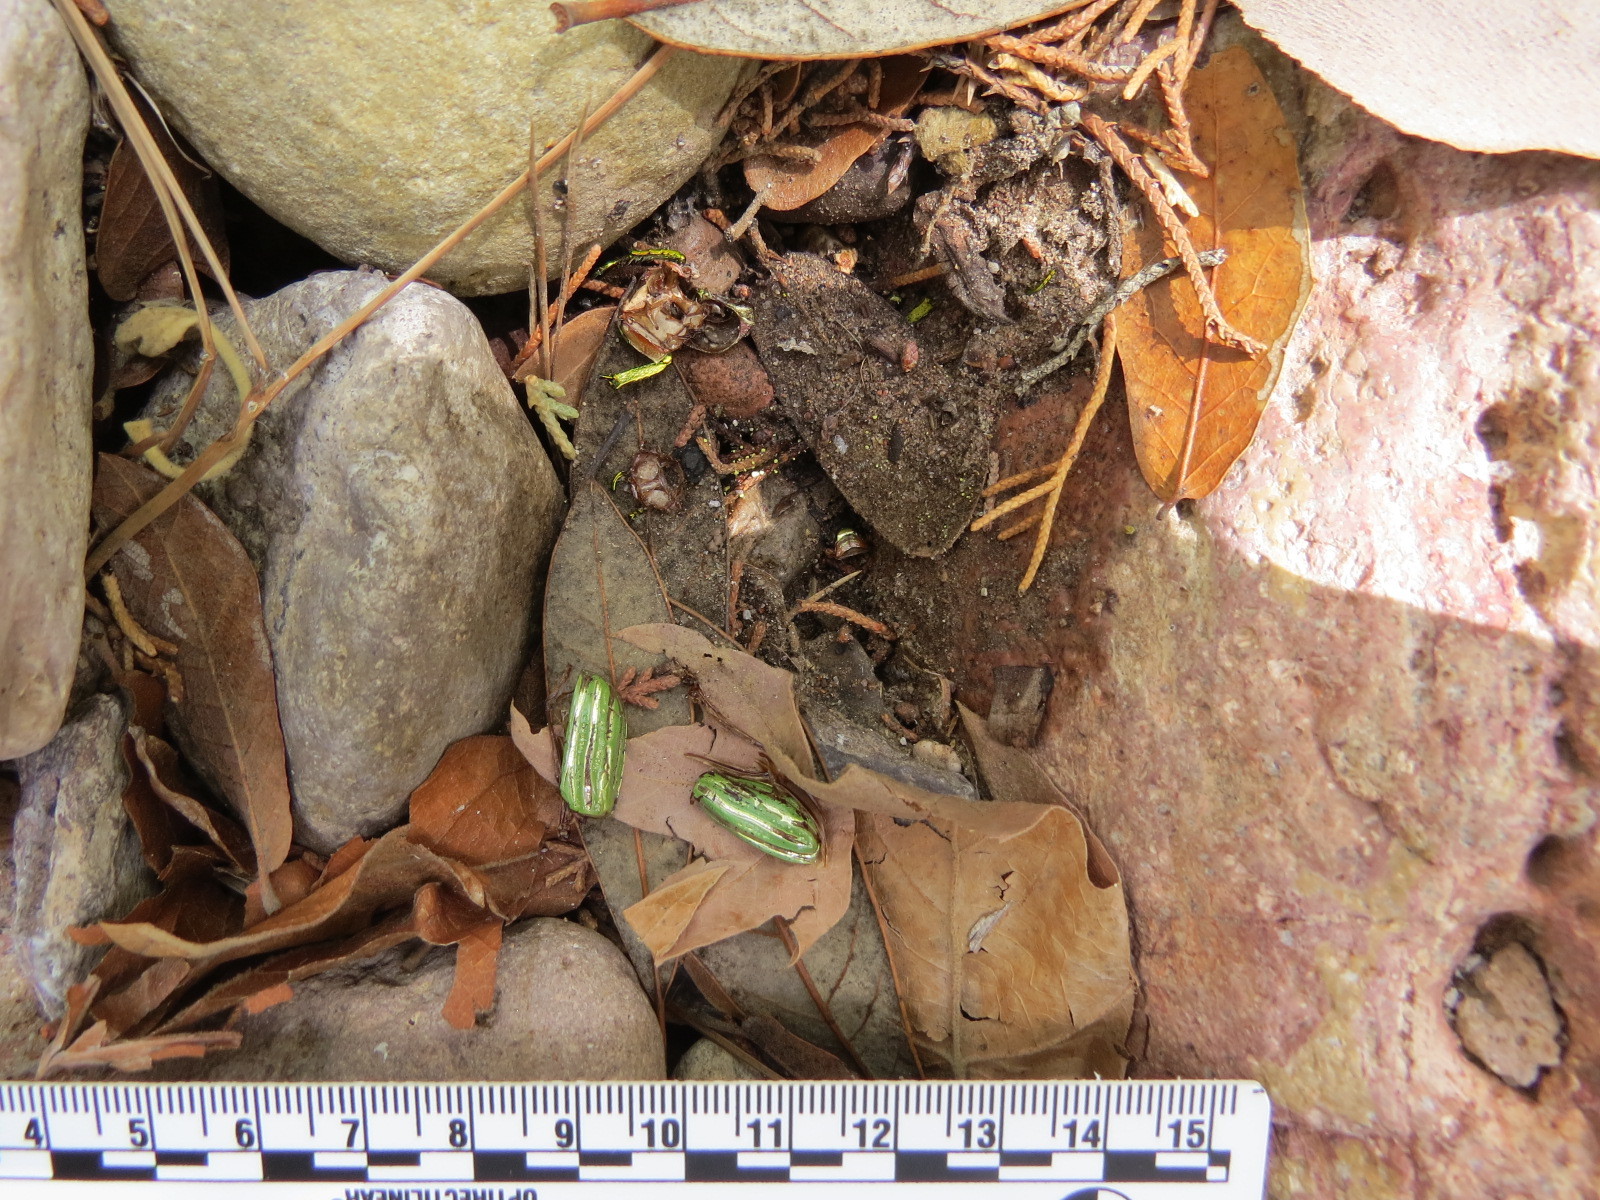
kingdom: Animalia
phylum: Arthropoda
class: Insecta
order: Coleoptera
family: Scarabaeidae
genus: Chrysina
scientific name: Chrysina gloriosa
